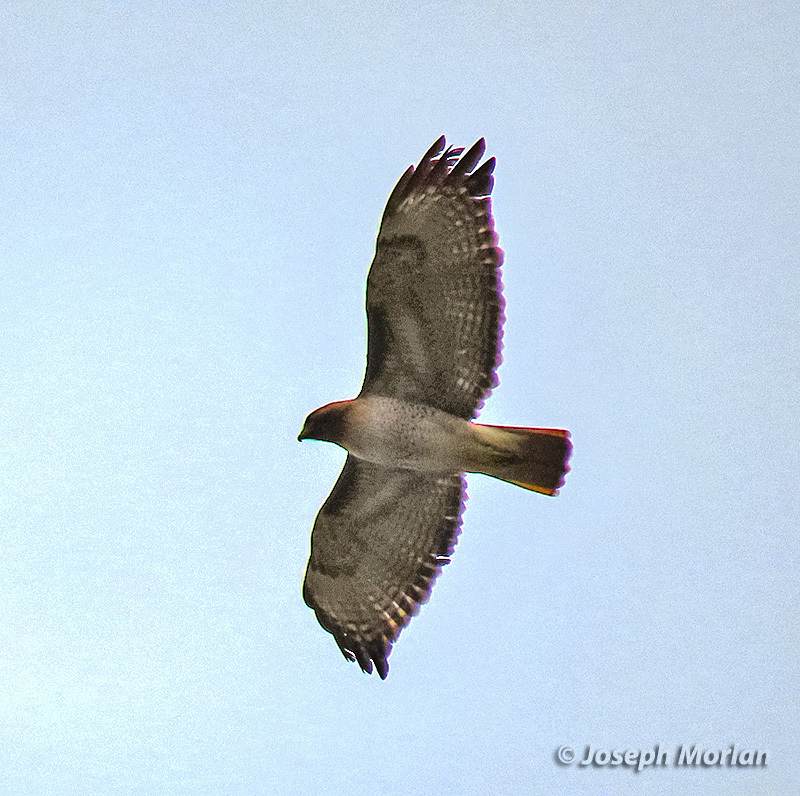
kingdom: Animalia
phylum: Chordata
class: Aves
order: Accipitriformes
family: Accipitridae
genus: Buteo
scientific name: Buteo jamaicensis
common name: Red-tailed hawk
